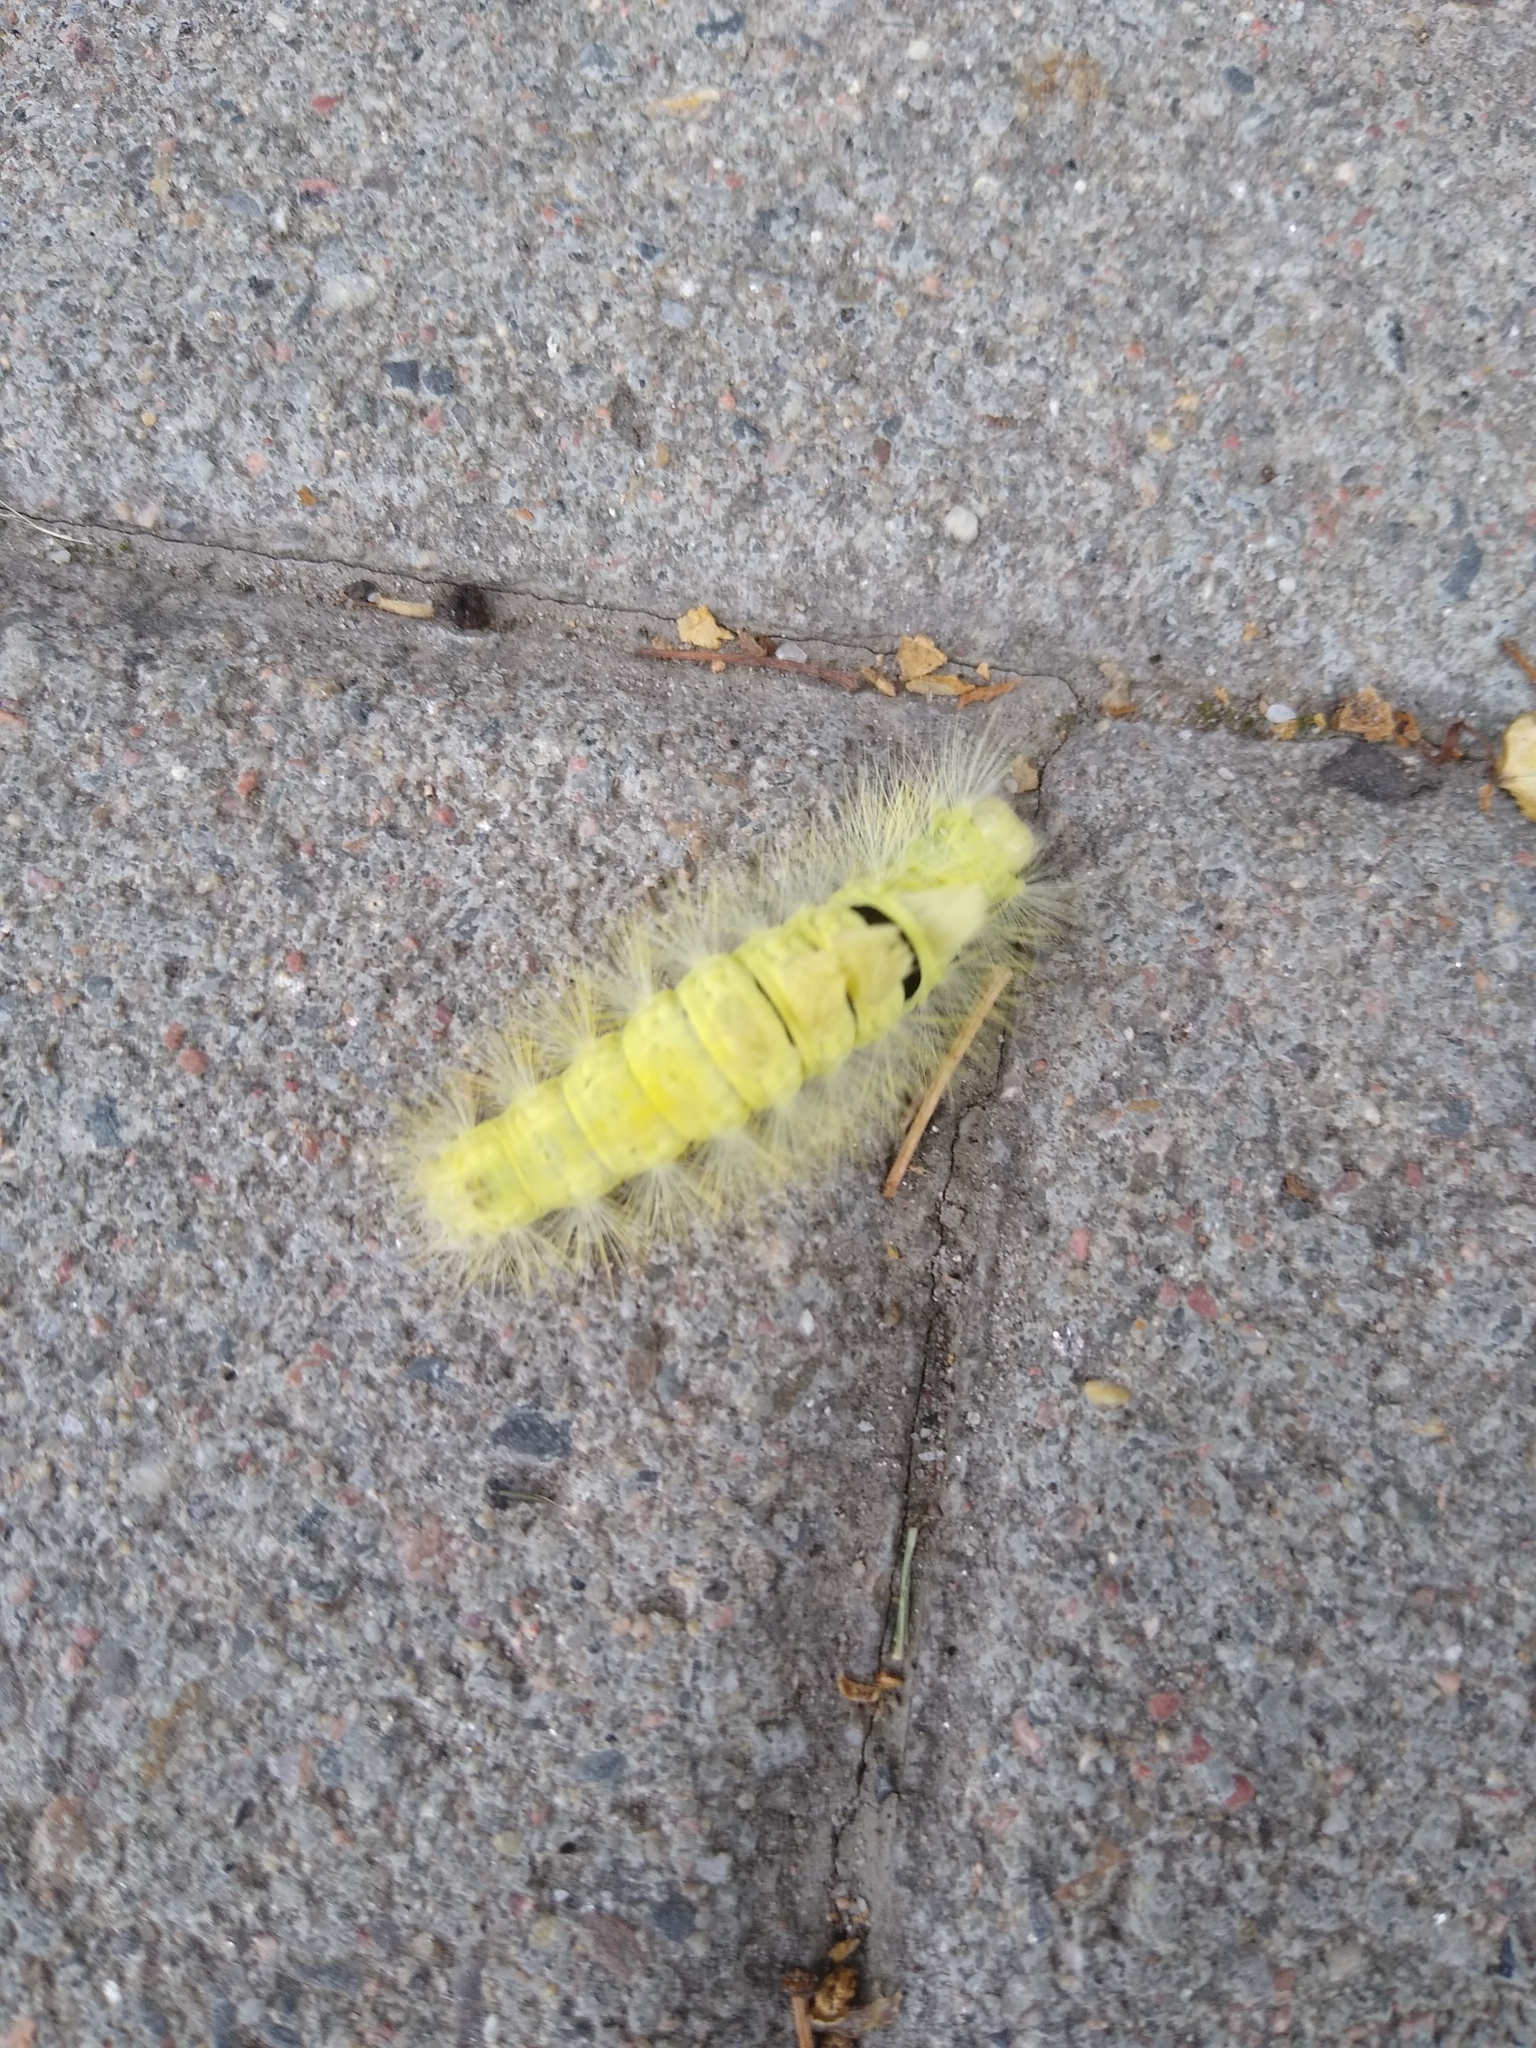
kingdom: Animalia
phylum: Arthropoda
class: Insecta
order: Lepidoptera
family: Erebidae
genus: Calliteara
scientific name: Calliteara pudibunda
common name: Pale tussock
